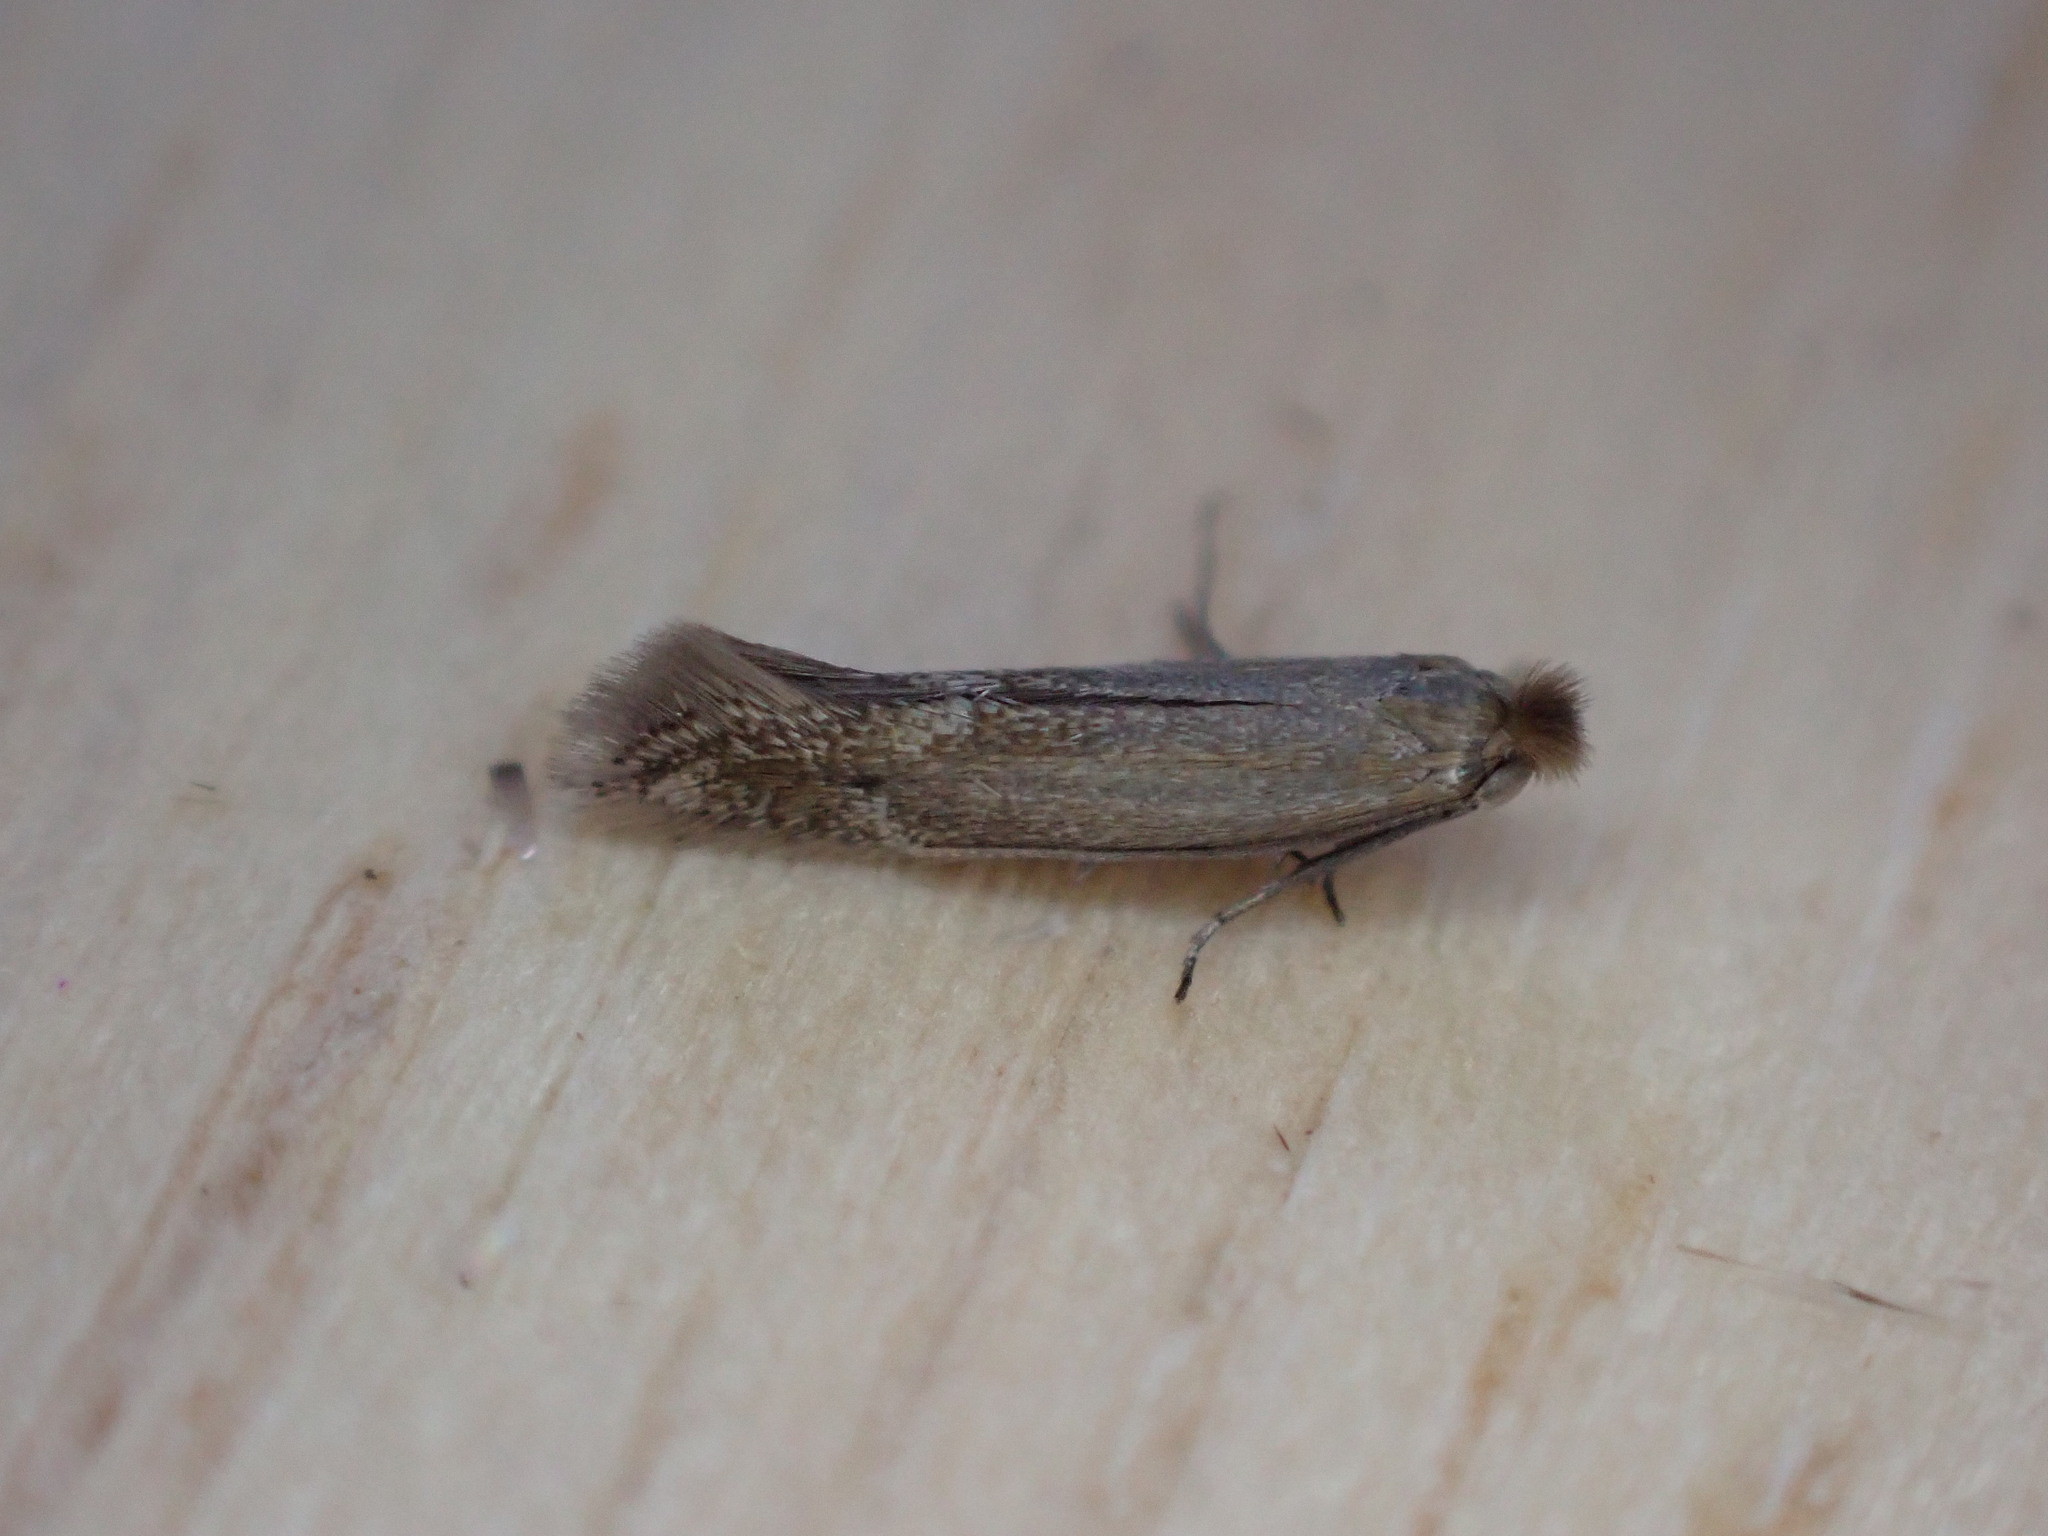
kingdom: Animalia
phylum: Arthropoda
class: Insecta
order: Lepidoptera
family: Bucculatricidae
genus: Bucculatrix
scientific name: Bucculatrix maritima
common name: Saltern bent-wing
